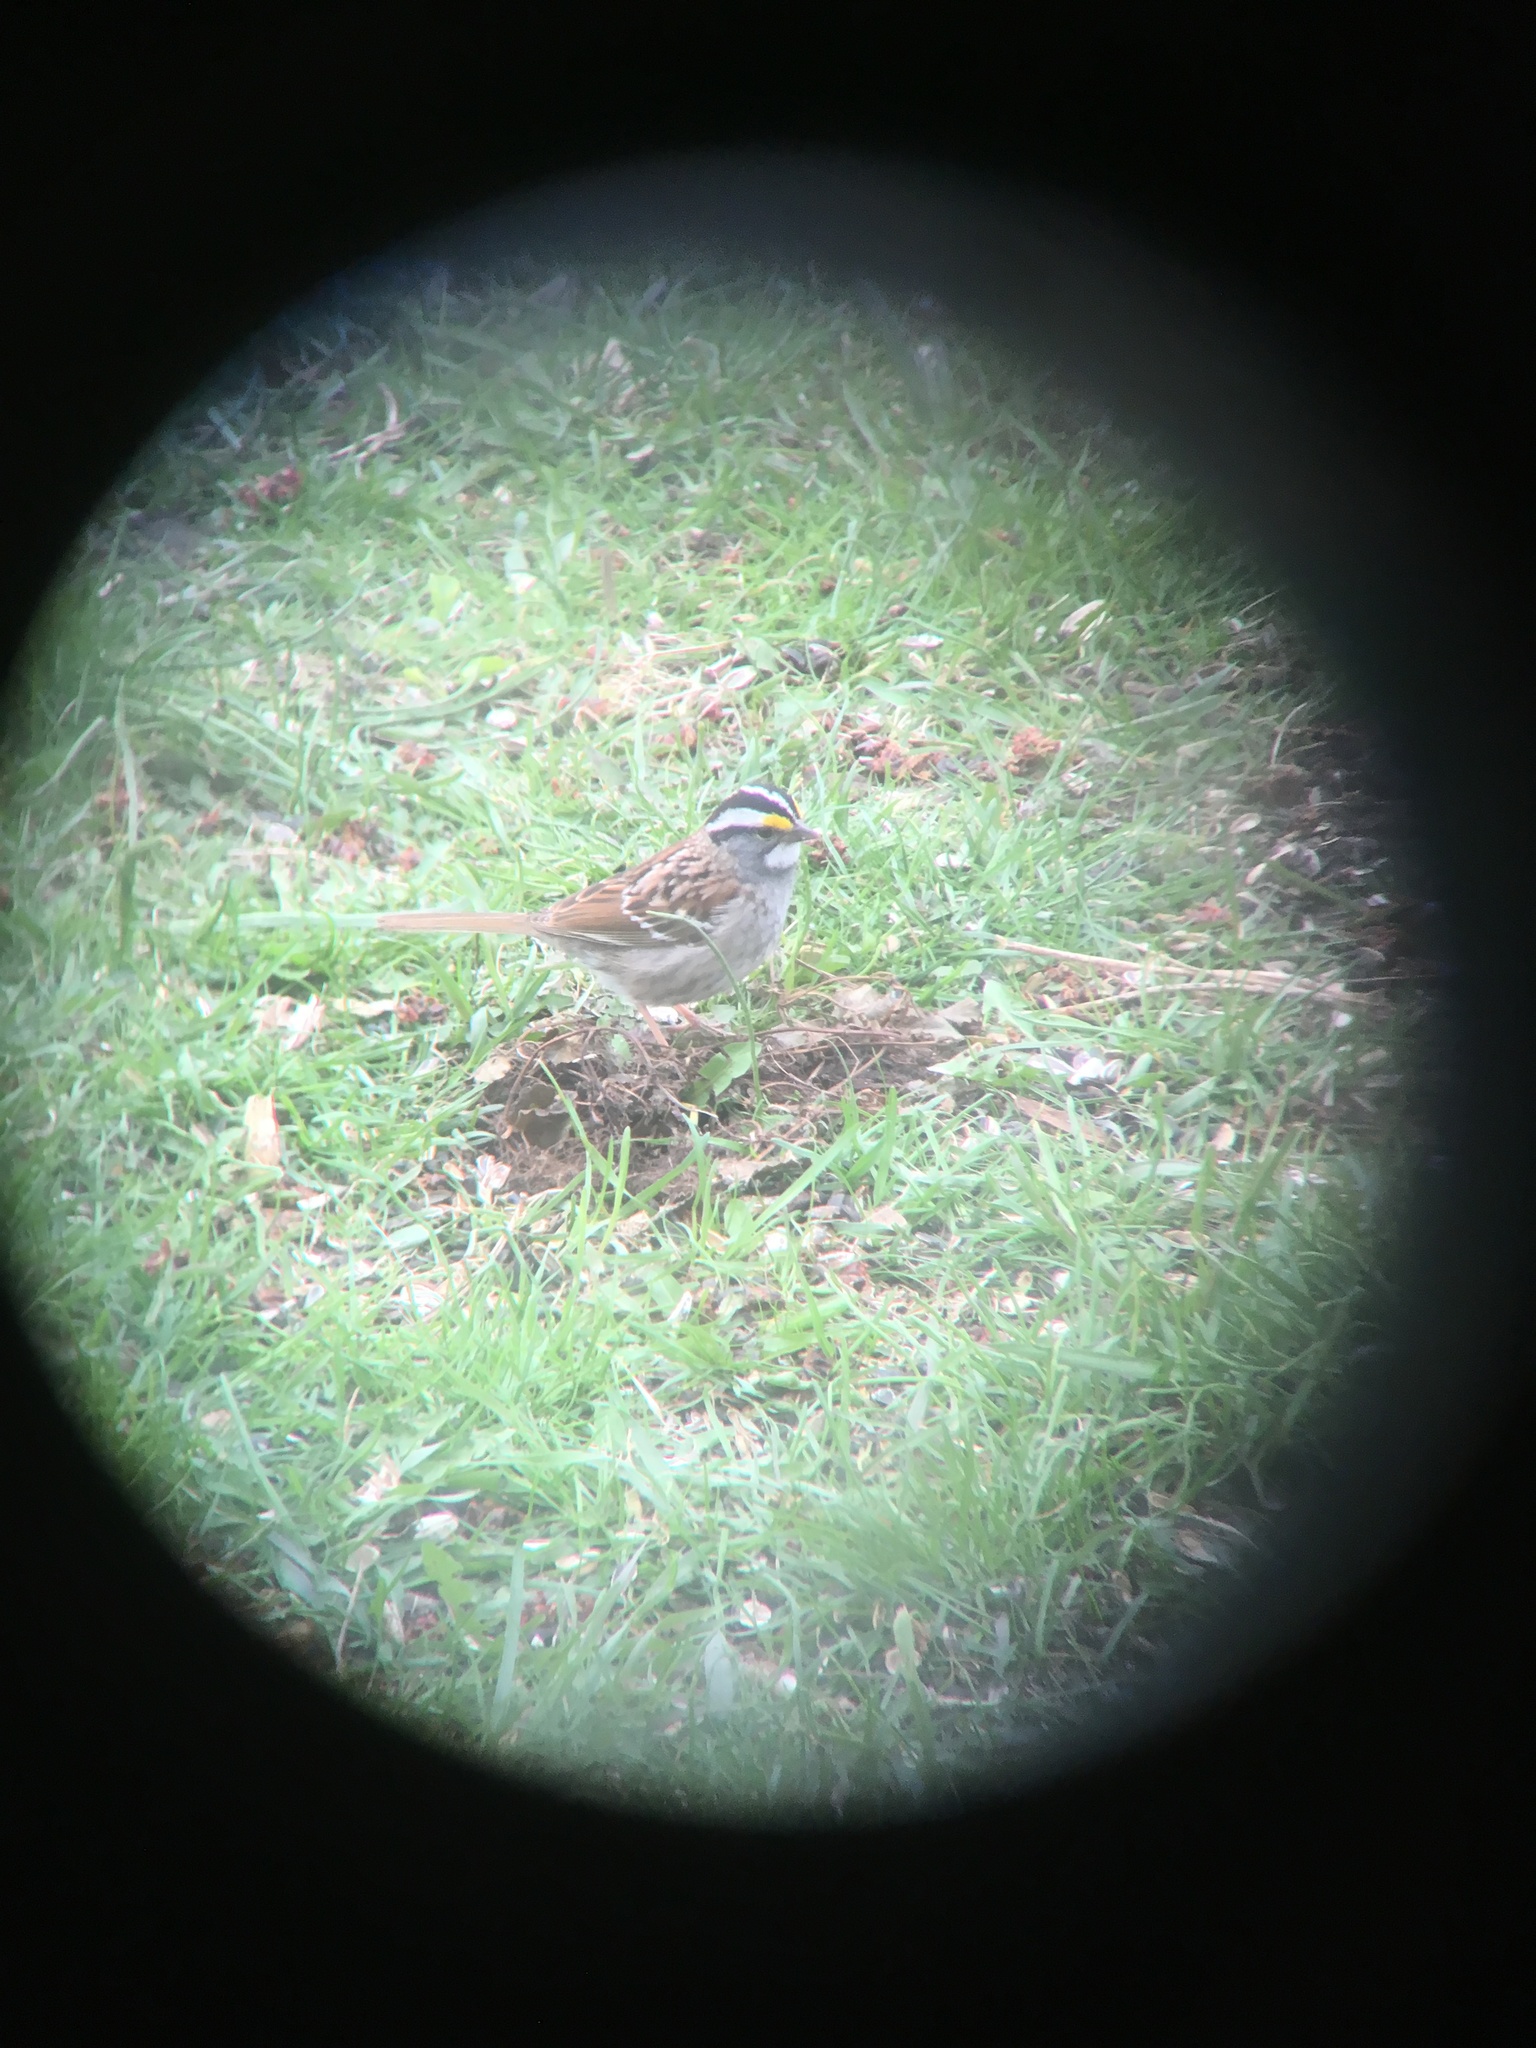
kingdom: Animalia
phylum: Chordata
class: Aves
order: Passeriformes
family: Passerellidae
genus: Zonotrichia
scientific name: Zonotrichia albicollis
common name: White-throated sparrow
